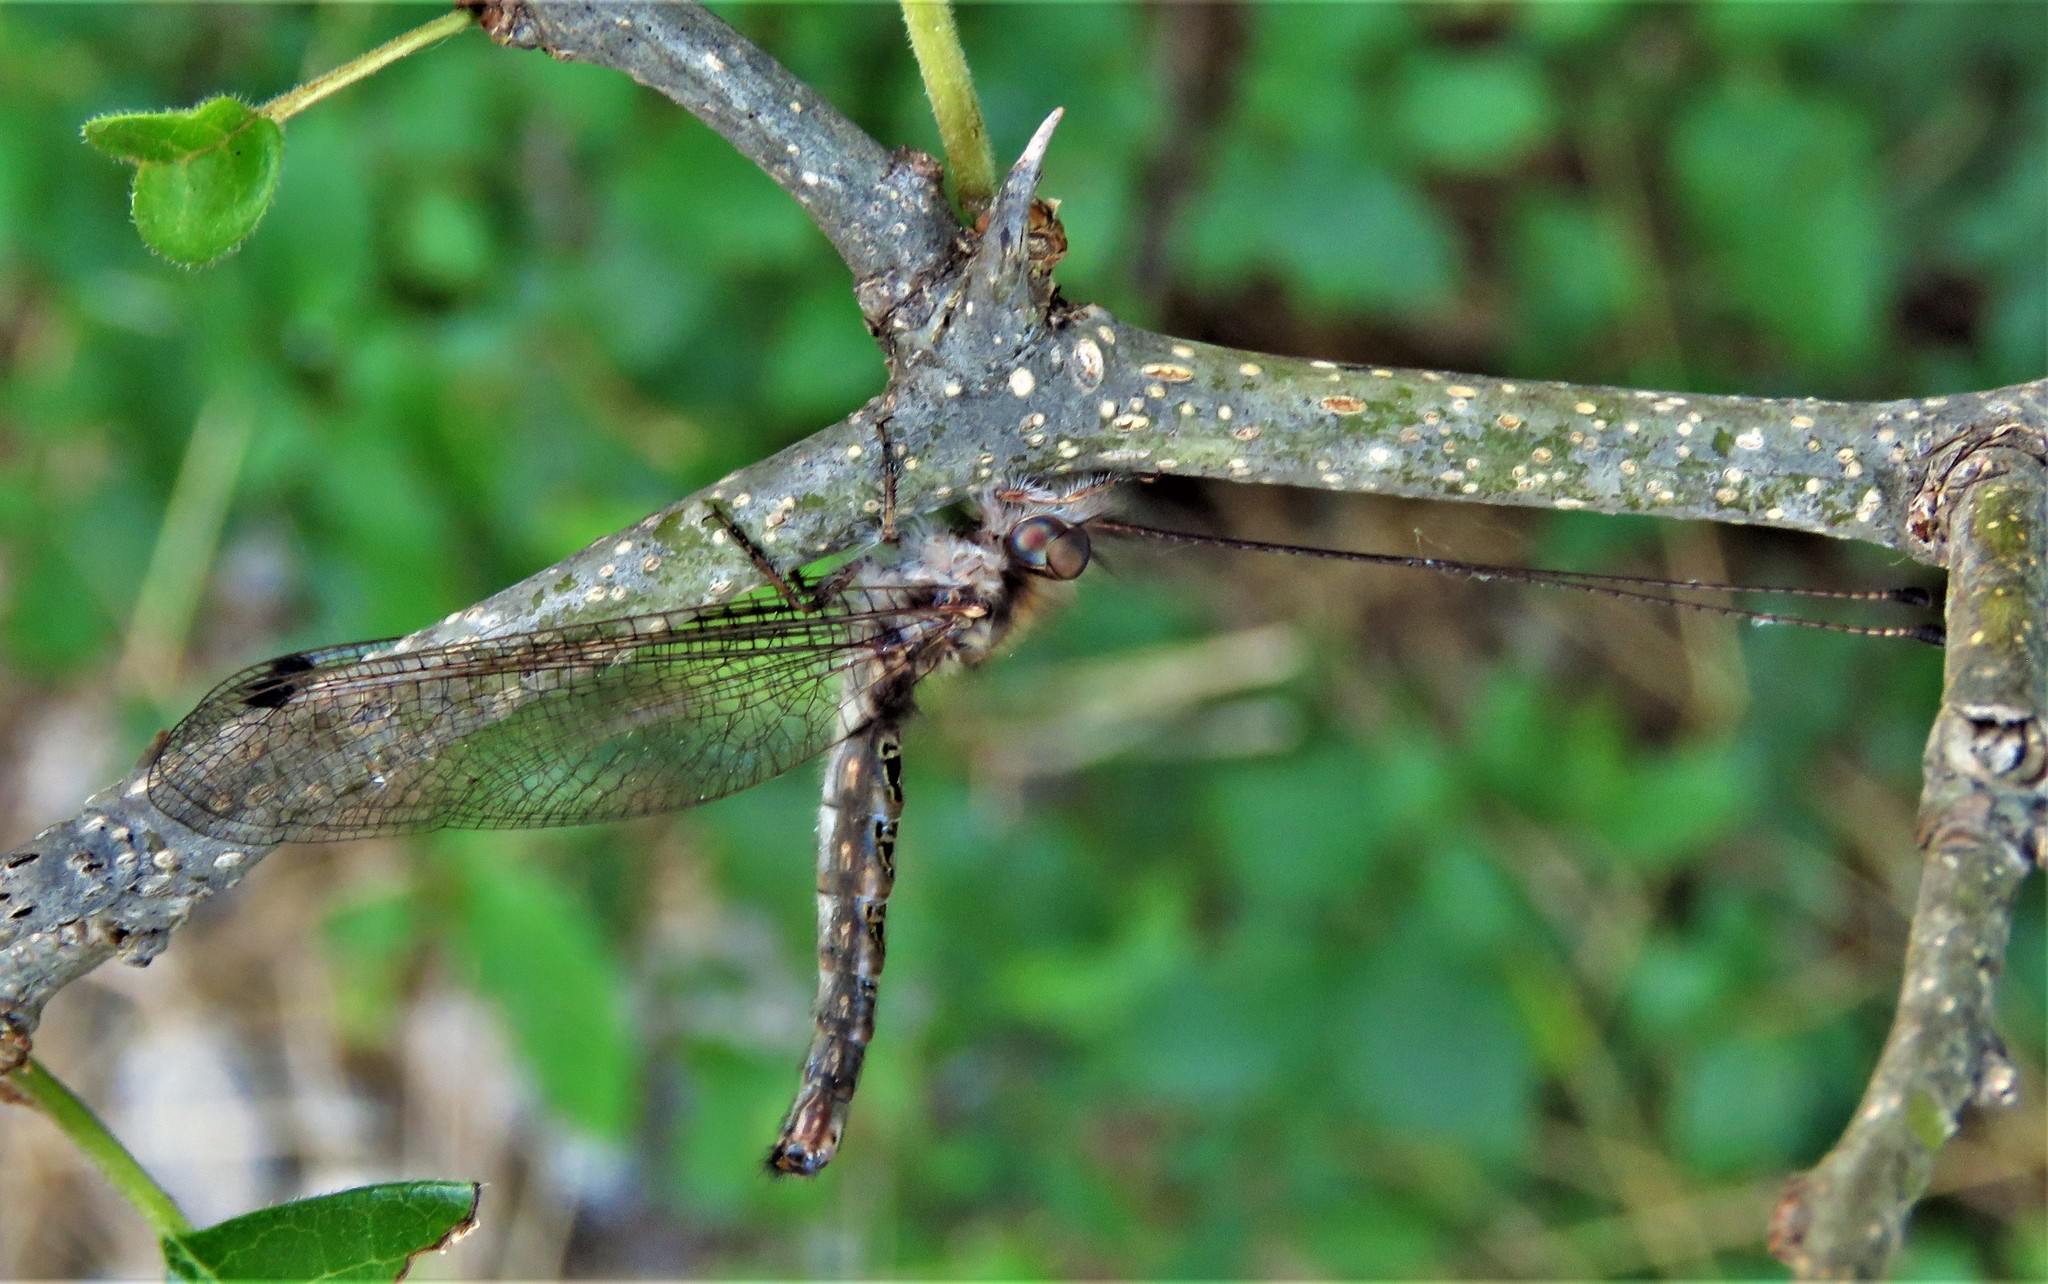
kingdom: Animalia
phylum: Arthropoda
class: Insecta
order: Neuroptera
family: Ascalaphidae
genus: Ululodes
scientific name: Ululodes macleayanus
